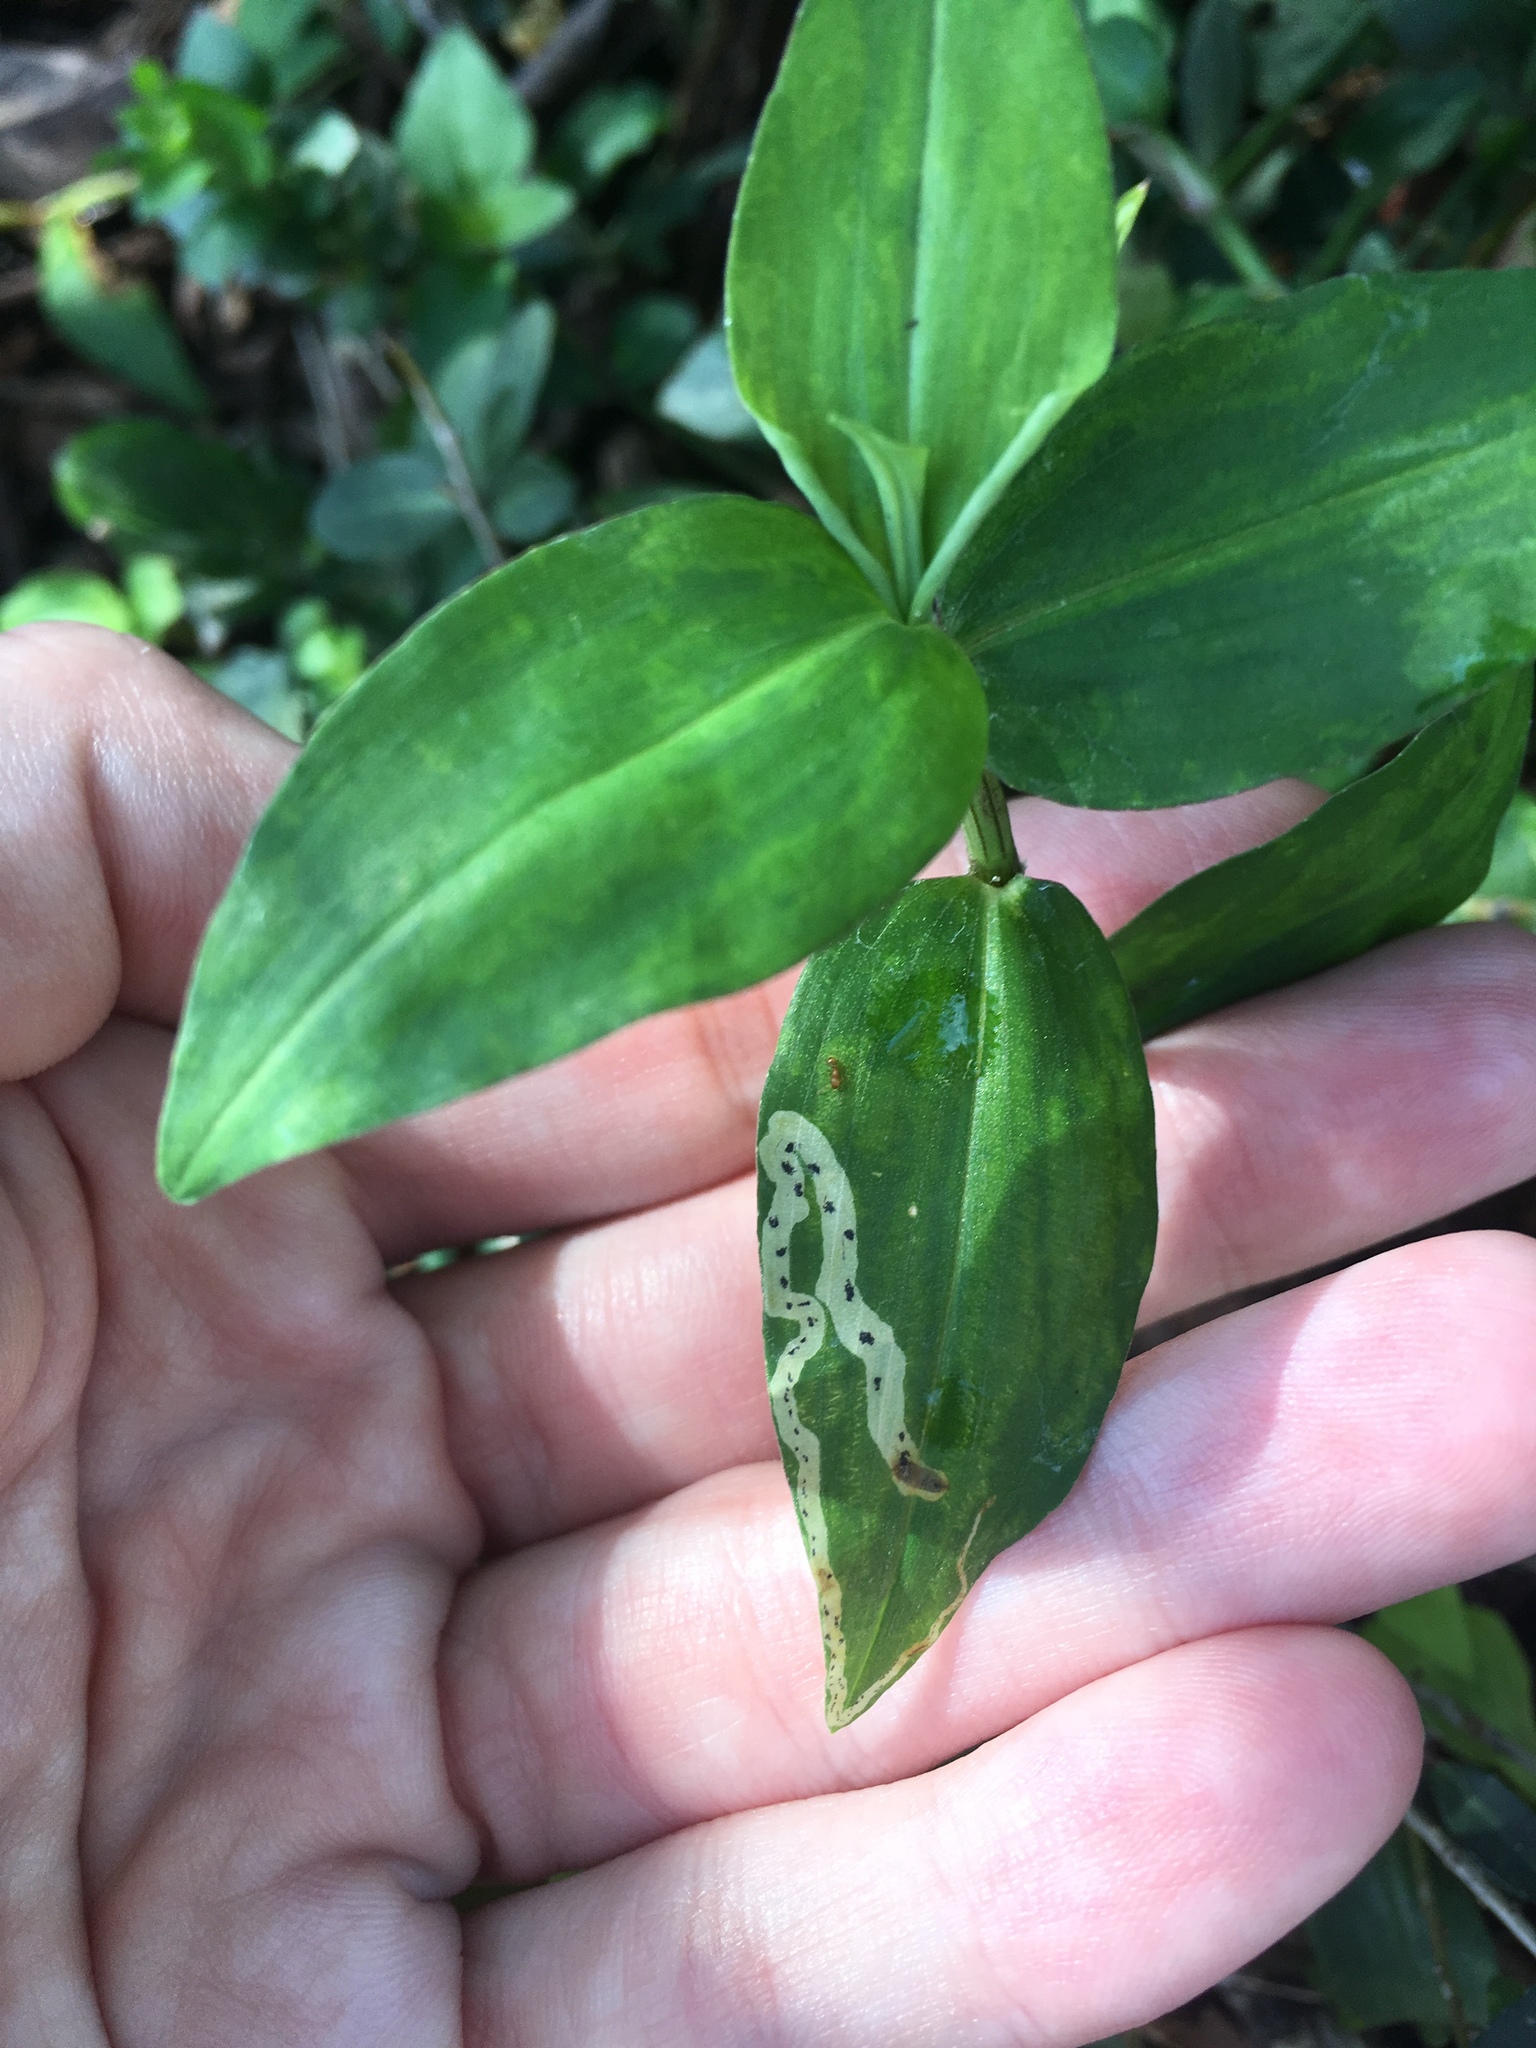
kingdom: Animalia
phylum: Arthropoda
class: Insecta
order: Diptera
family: Agromyzidae
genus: Liriomyza
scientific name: Liriomyza commelinae
